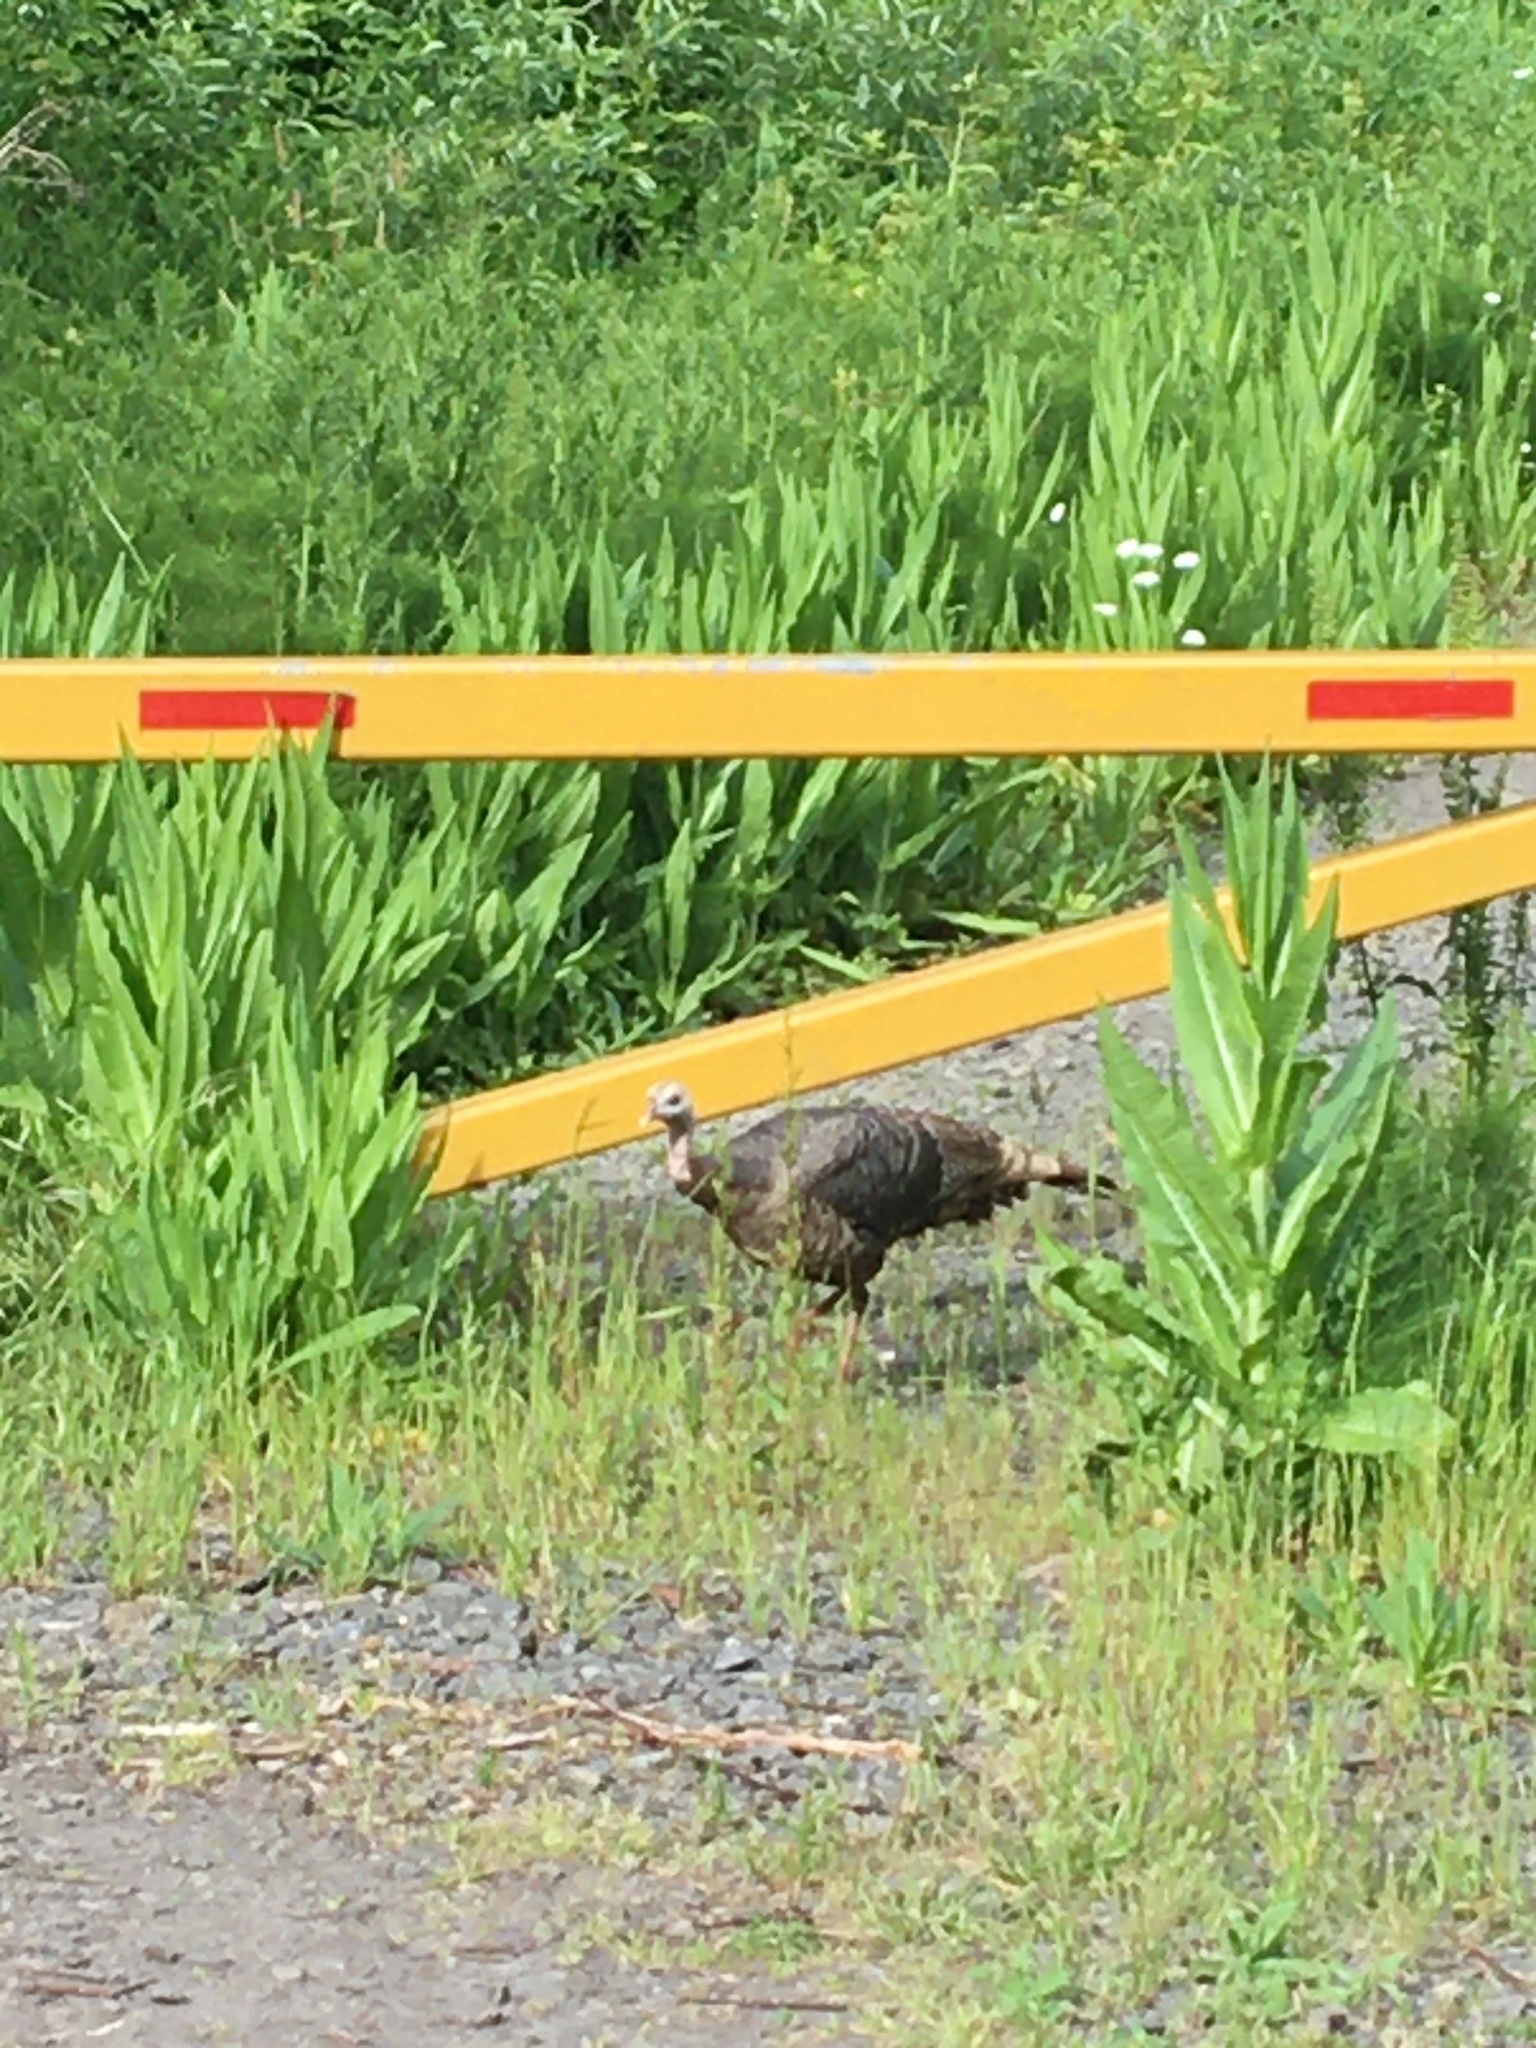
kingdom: Animalia
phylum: Chordata
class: Aves
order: Galliformes
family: Phasianidae
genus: Meleagris
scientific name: Meleagris gallopavo
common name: Wild turkey
